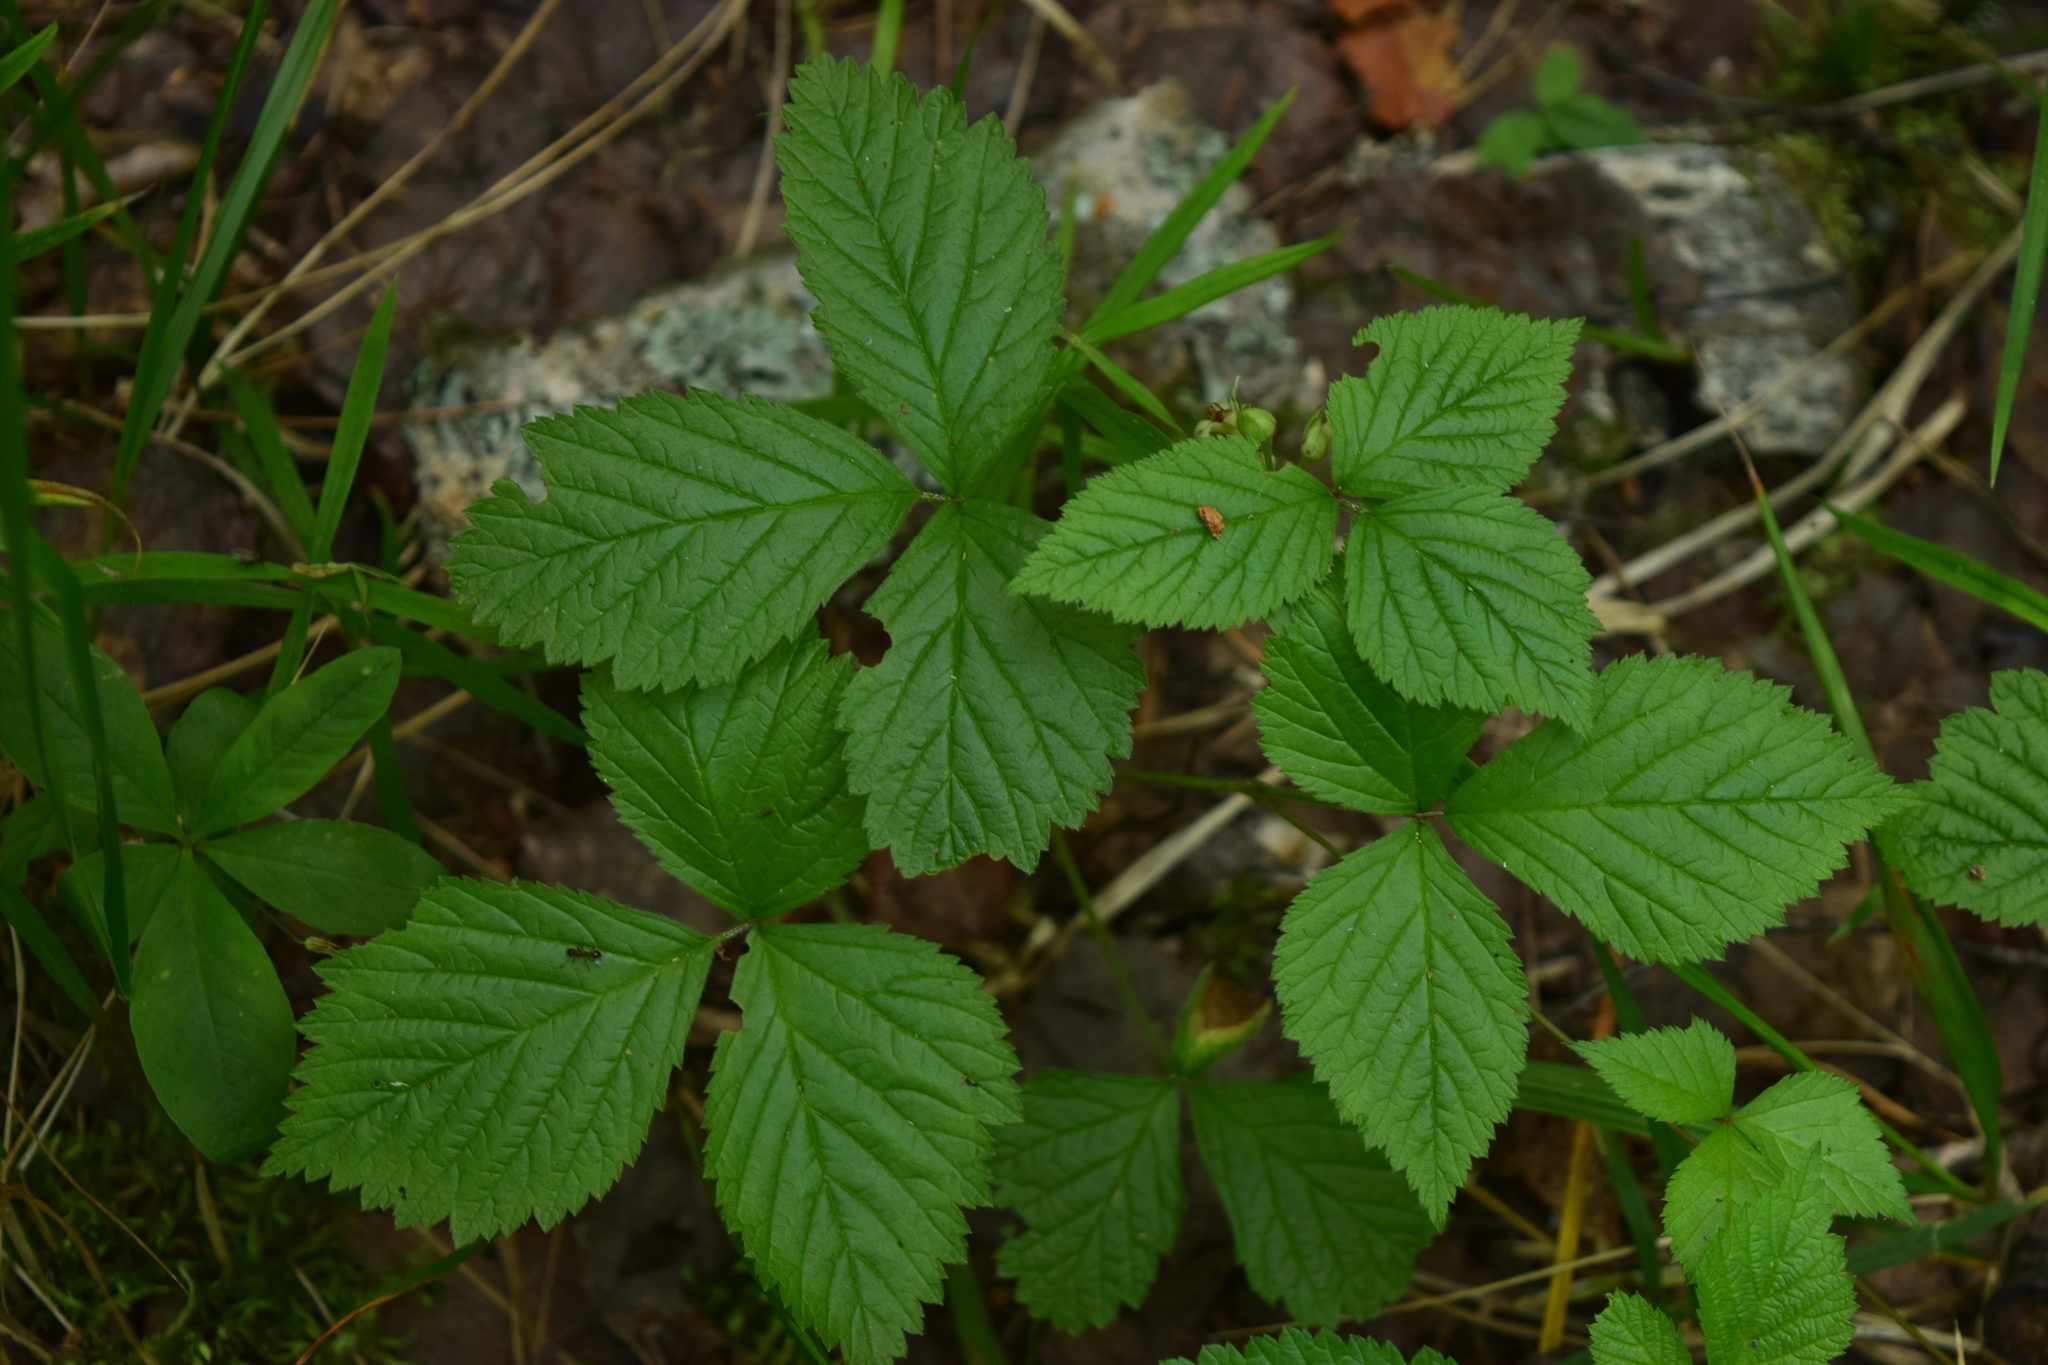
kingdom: Plantae
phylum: Tracheophyta
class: Magnoliopsida
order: Rosales
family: Rosaceae
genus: Rubus
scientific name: Rubus saxatilis
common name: Stone bramble
